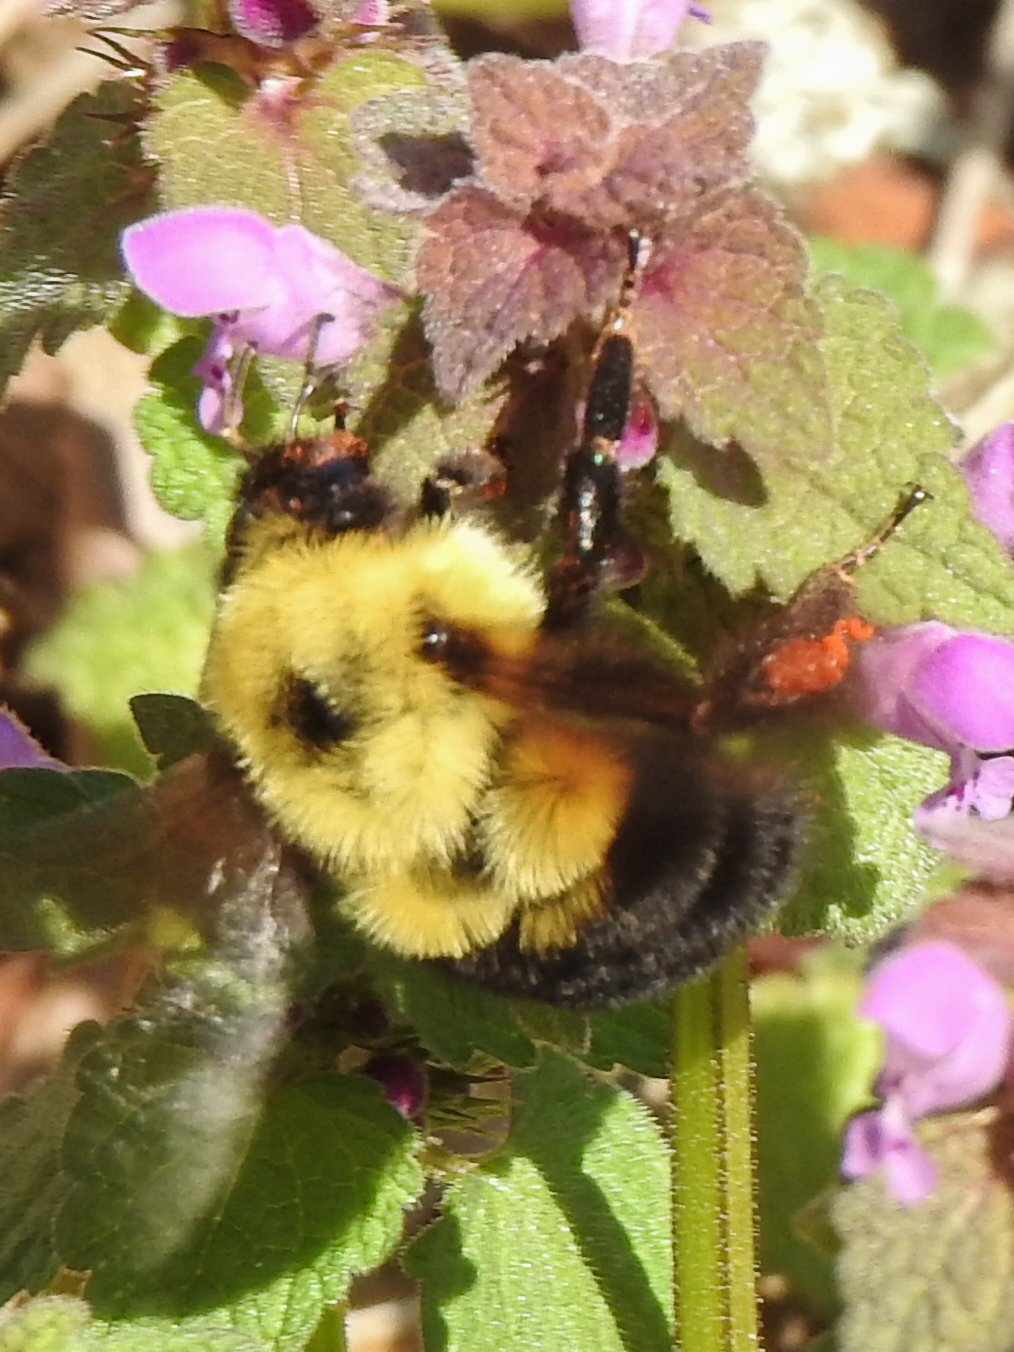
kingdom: Animalia
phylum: Arthropoda
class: Insecta
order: Hymenoptera
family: Apidae
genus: Bombus
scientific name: Bombus bimaculatus
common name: Two-spotted bumble bee
